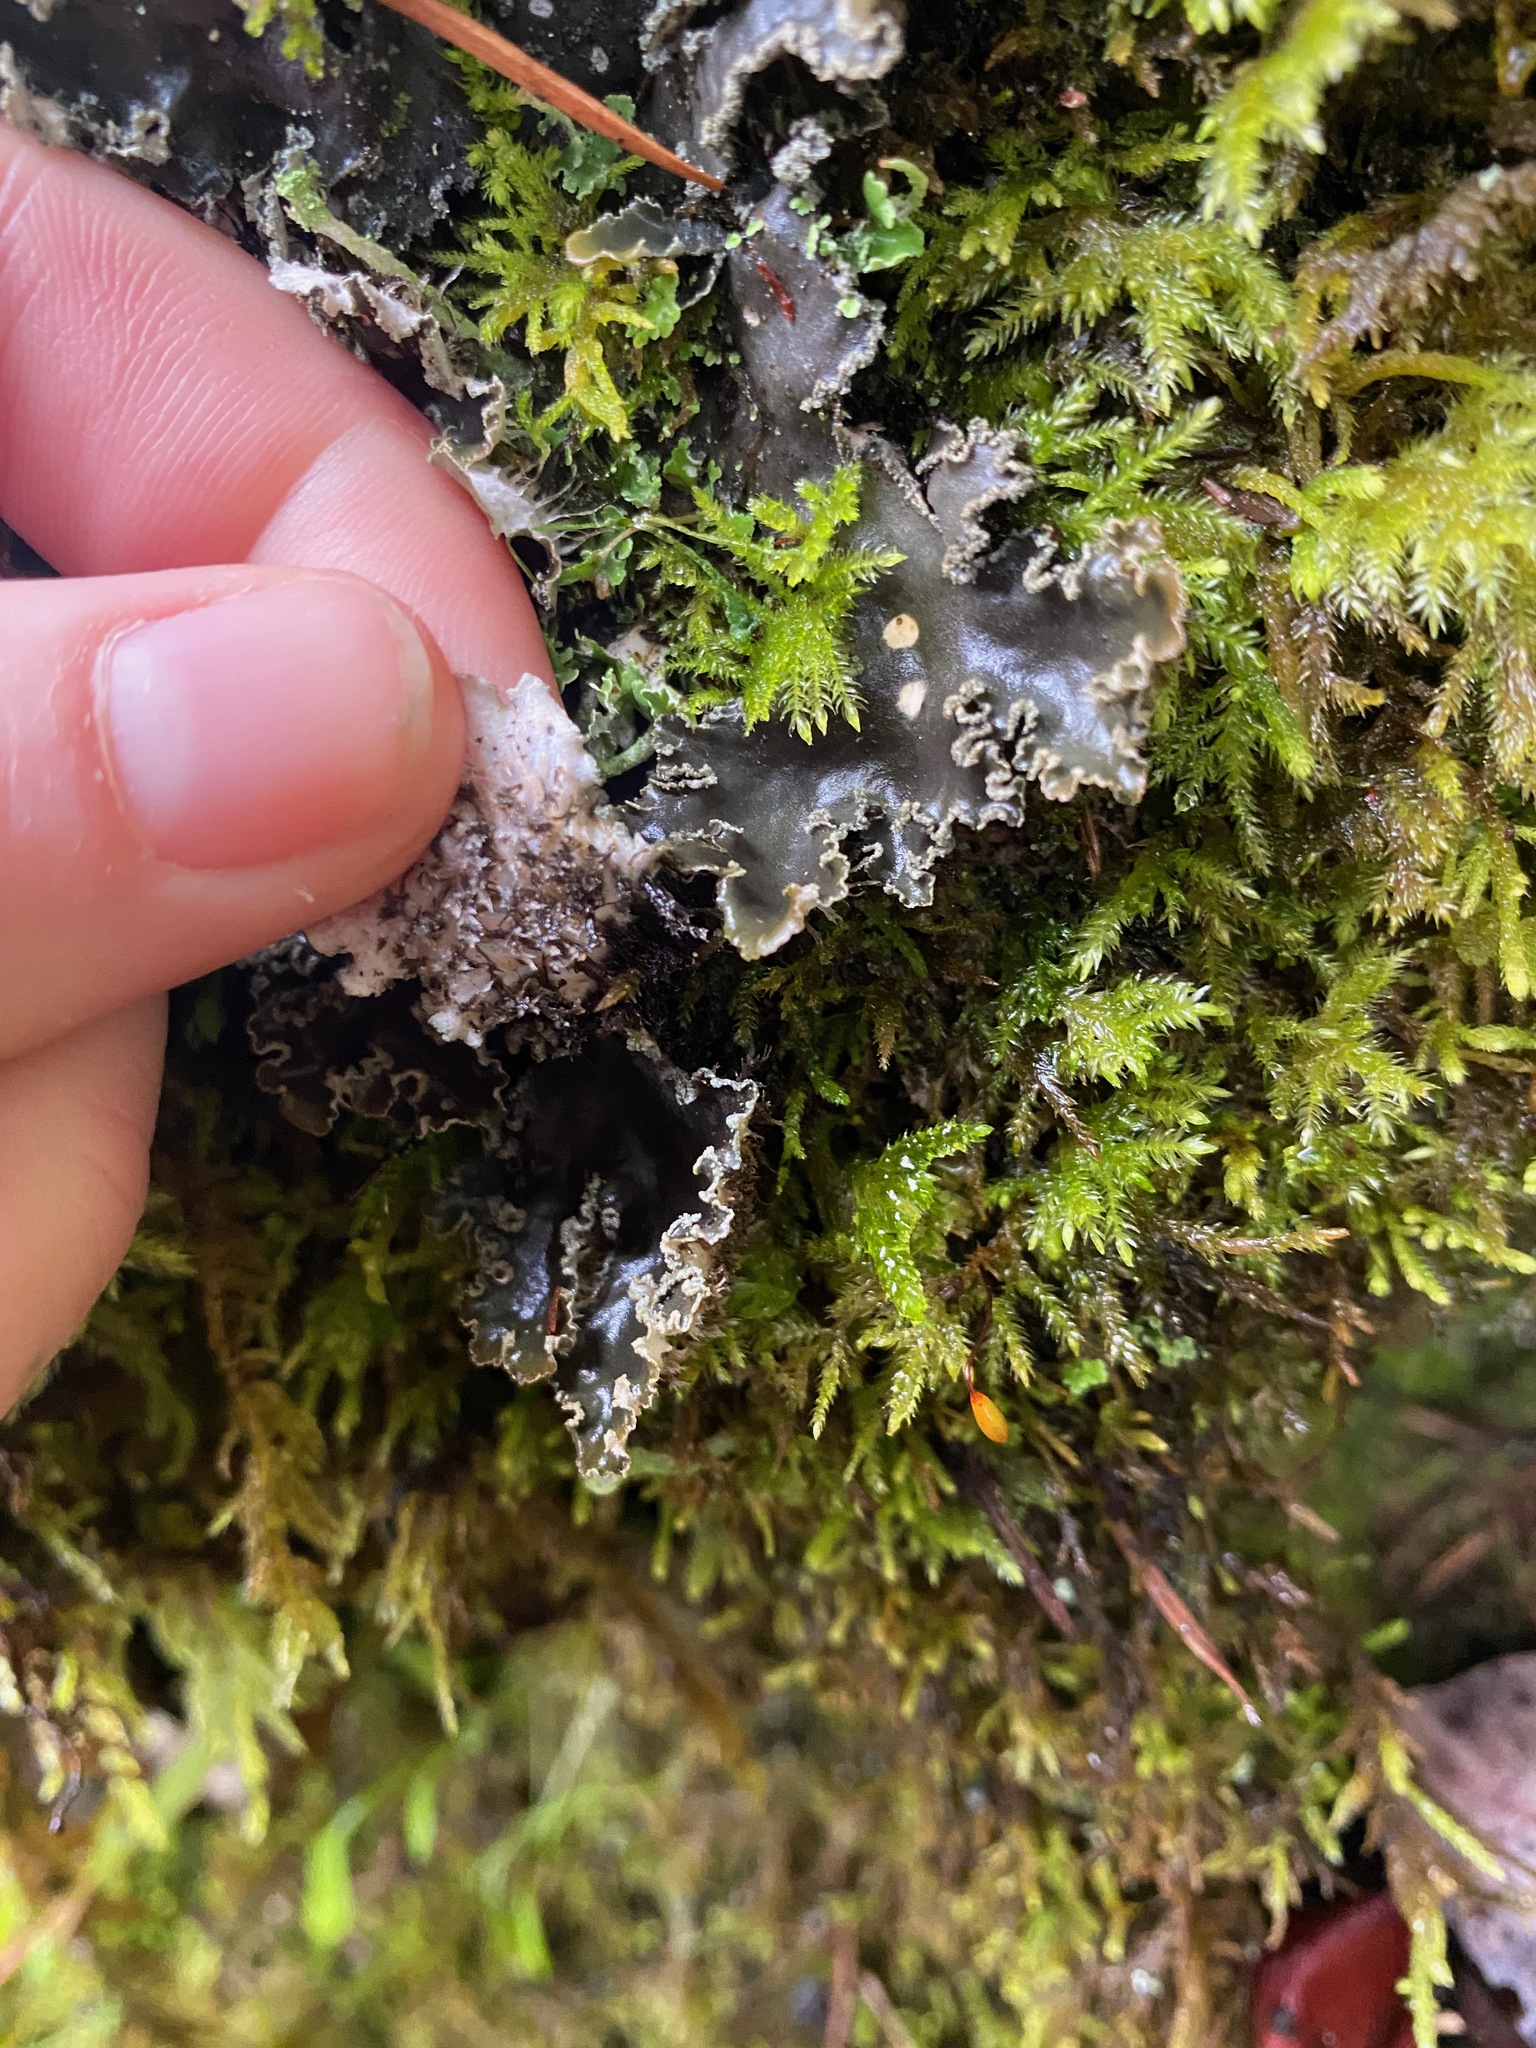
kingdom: Fungi
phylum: Ascomycota
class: Lecanoromycetes
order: Peltigerales
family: Peltigeraceae
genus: Peltigera
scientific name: Peltigera collina
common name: Gritty tree pelt lichen
